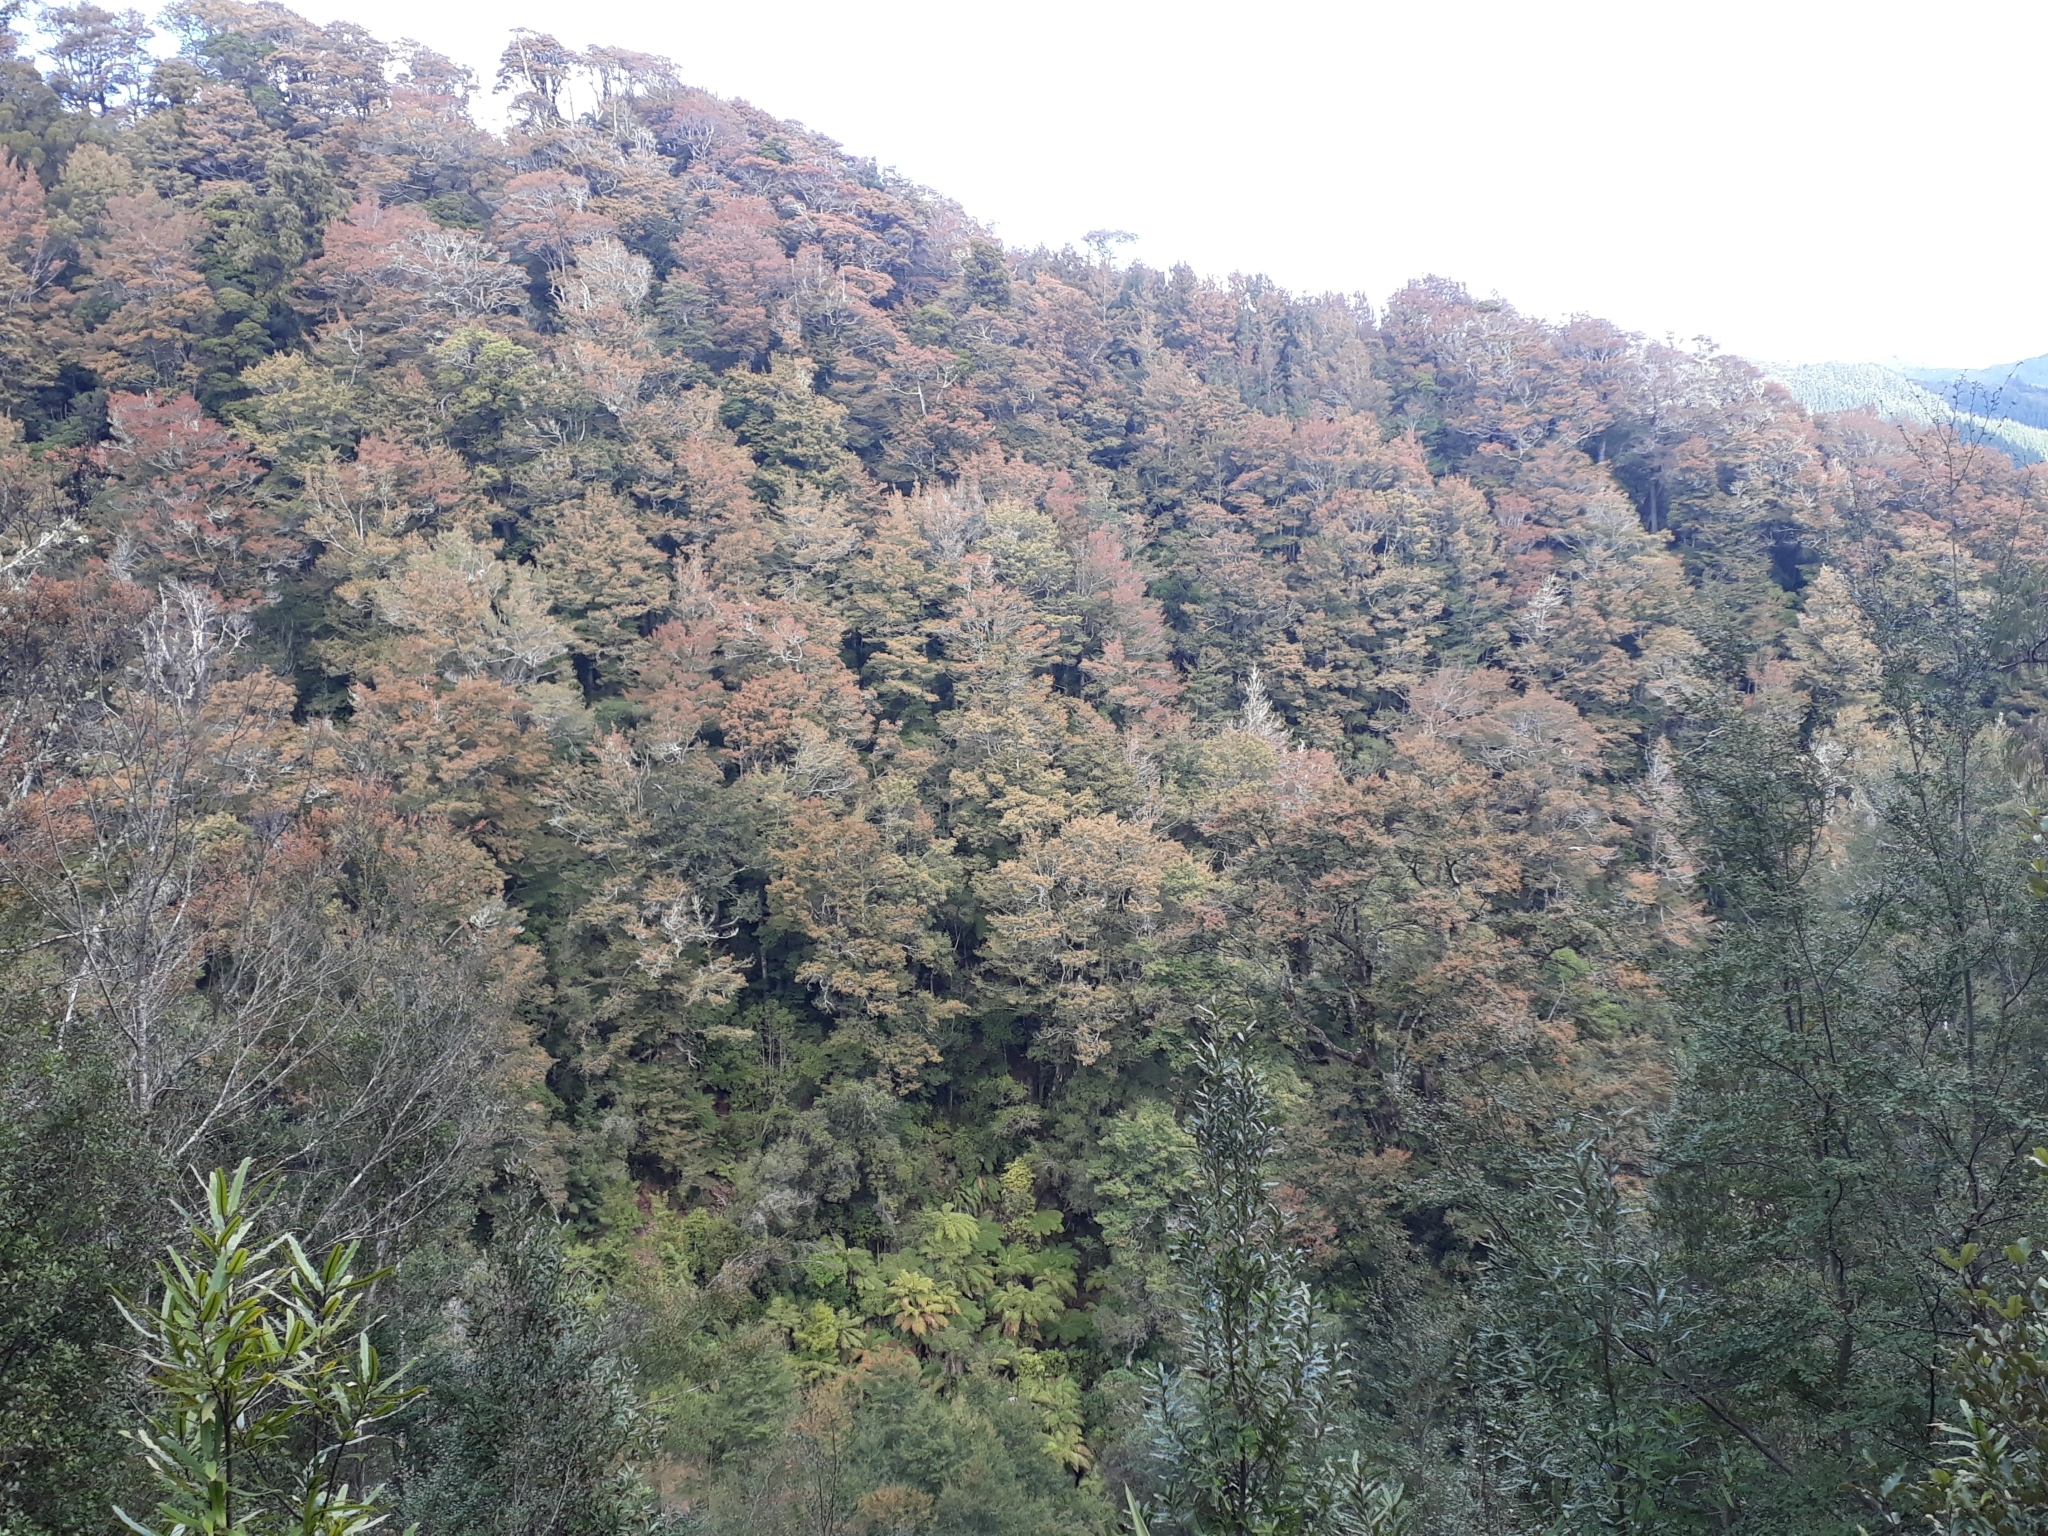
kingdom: Plantae
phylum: Tracheophyta
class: Magnoliopsida
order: Fagales
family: Nothofagaceae
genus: Nothofagus
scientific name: Nothofagus truncata
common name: Hard beech
